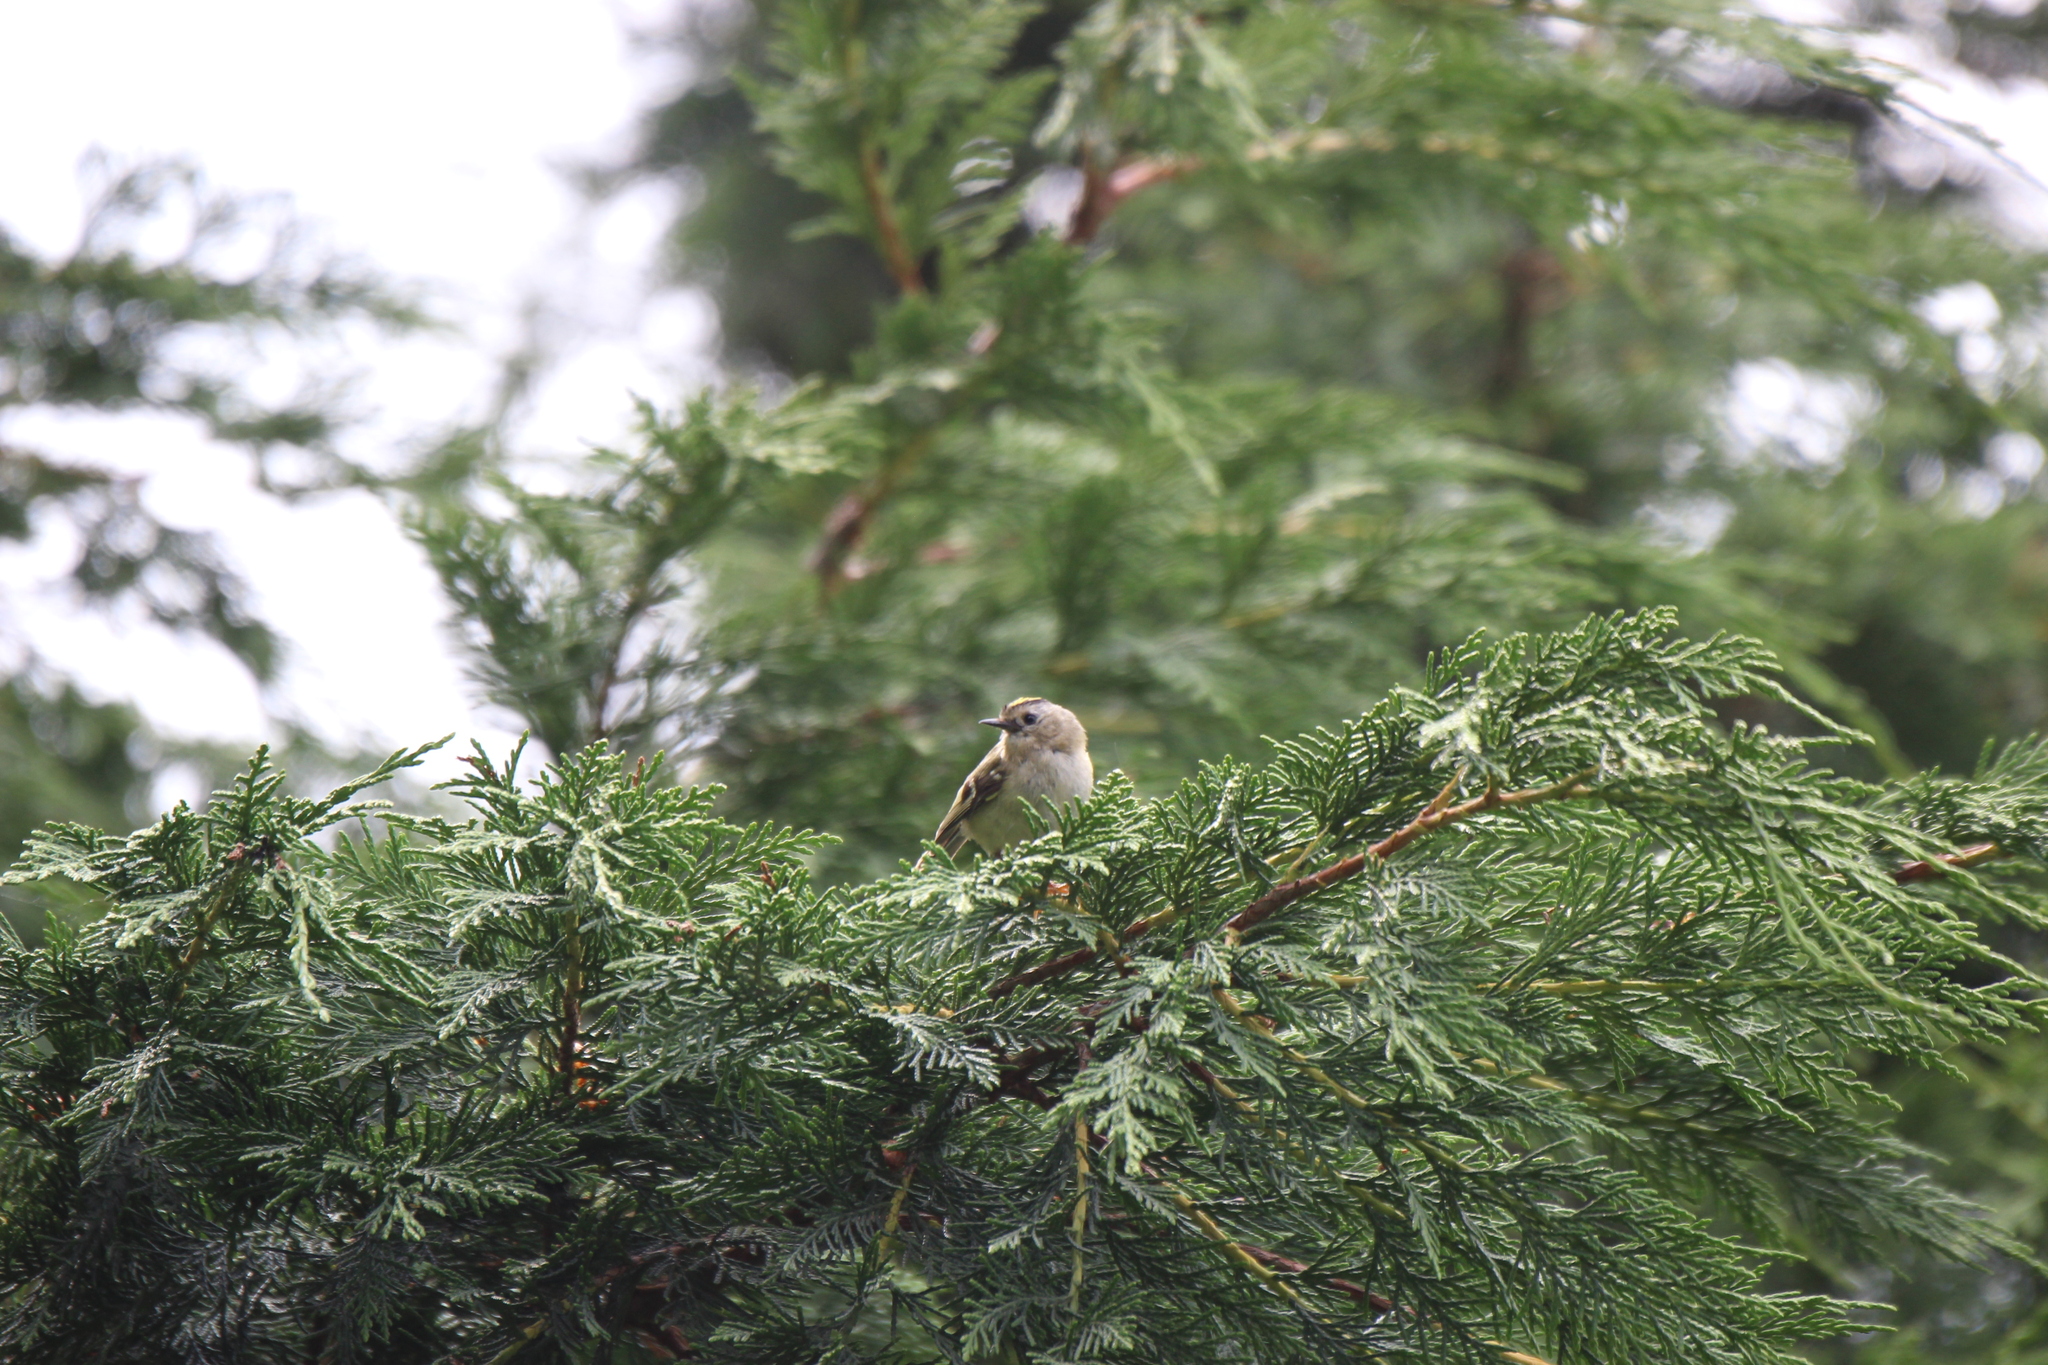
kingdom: Animalia
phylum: Chordata
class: Aves
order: Passeriformes
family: Regulidae
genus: Regulus
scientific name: Regulus regulus
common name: Goldcrest
